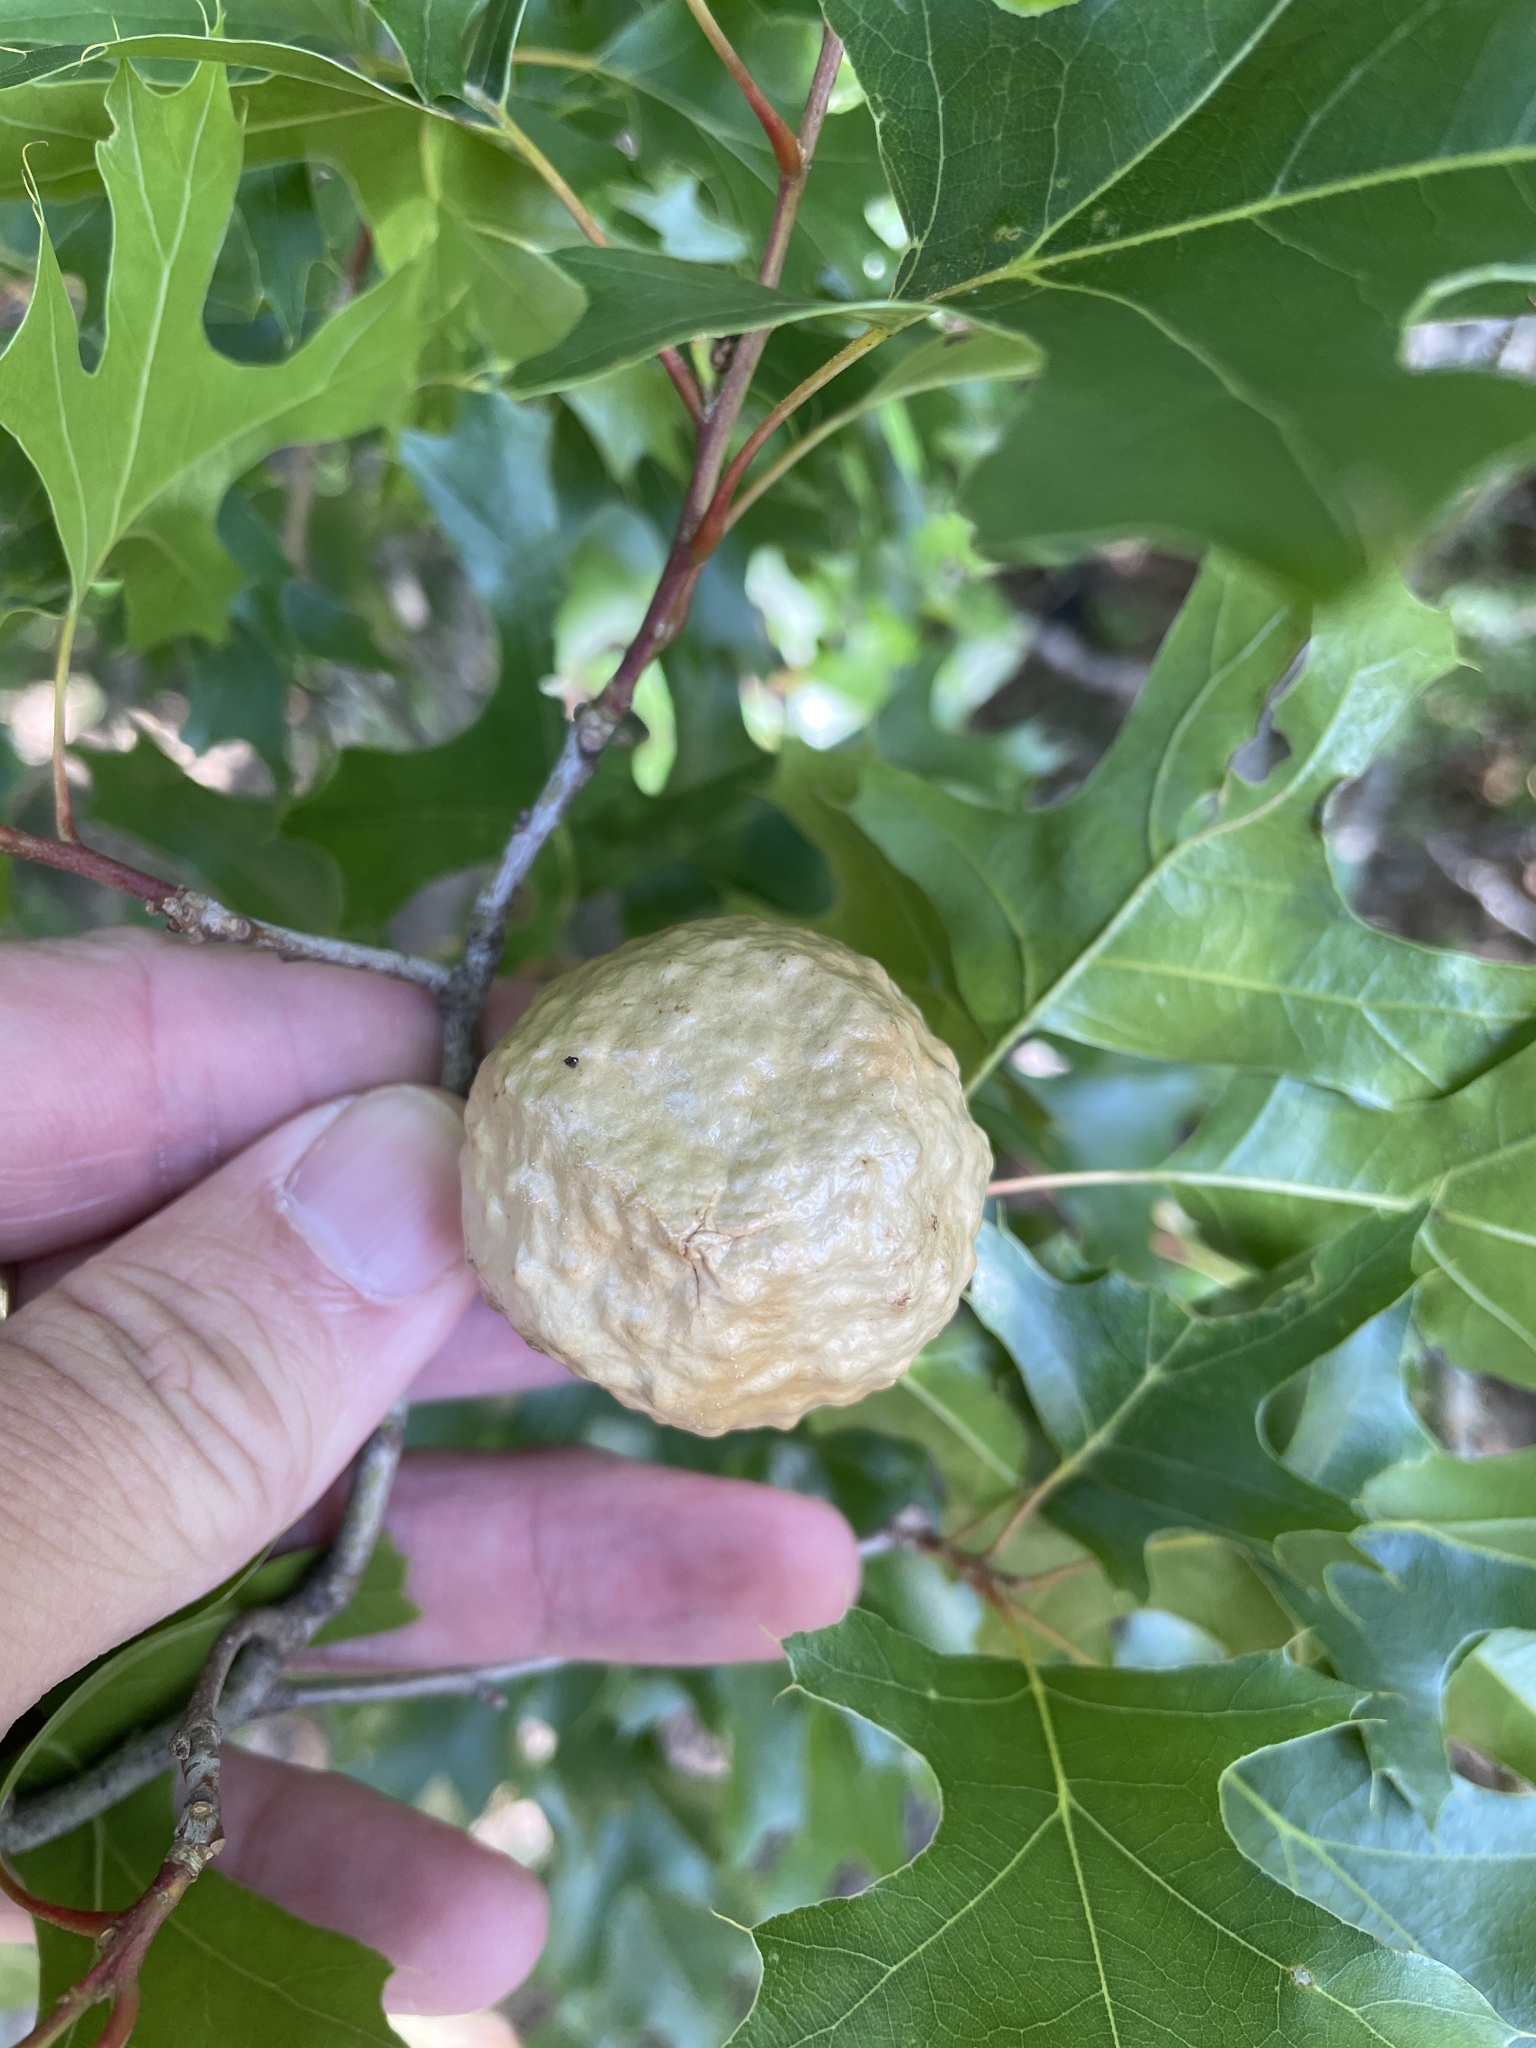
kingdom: Animalia
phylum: Arthropoda
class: Insecta
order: Hymenoptera
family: Cynipidae
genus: Amphibolips
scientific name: Amphibolips
